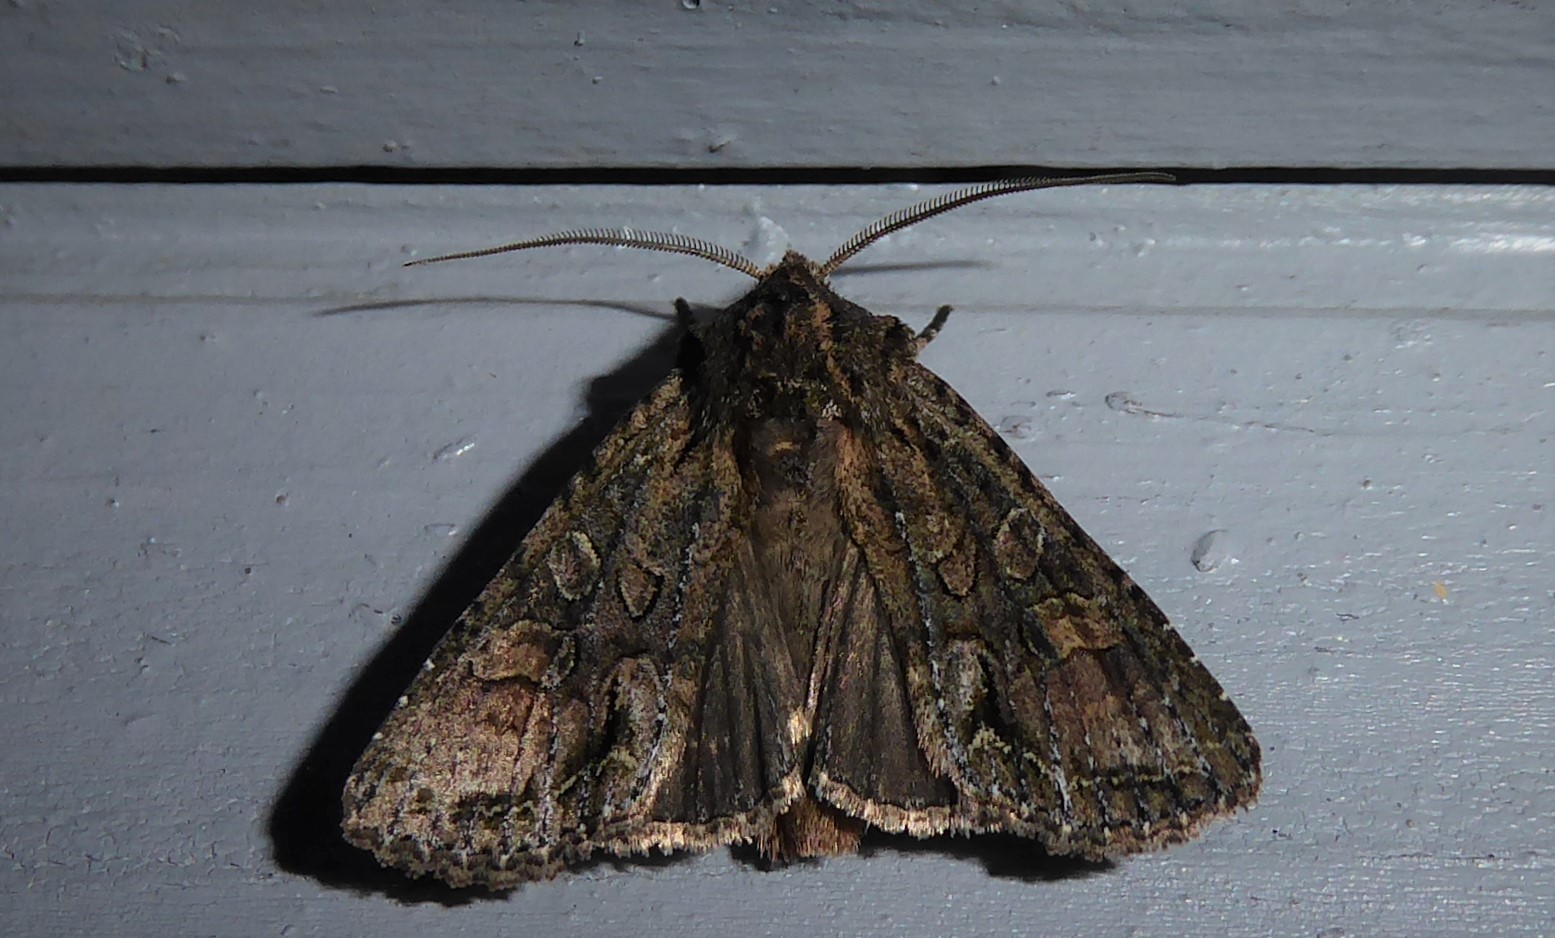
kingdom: Animalia
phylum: Arthropoda
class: Insecta
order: Lepidoptera
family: Noctuidae
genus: Ichneutica
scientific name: Ichneutica mutans
